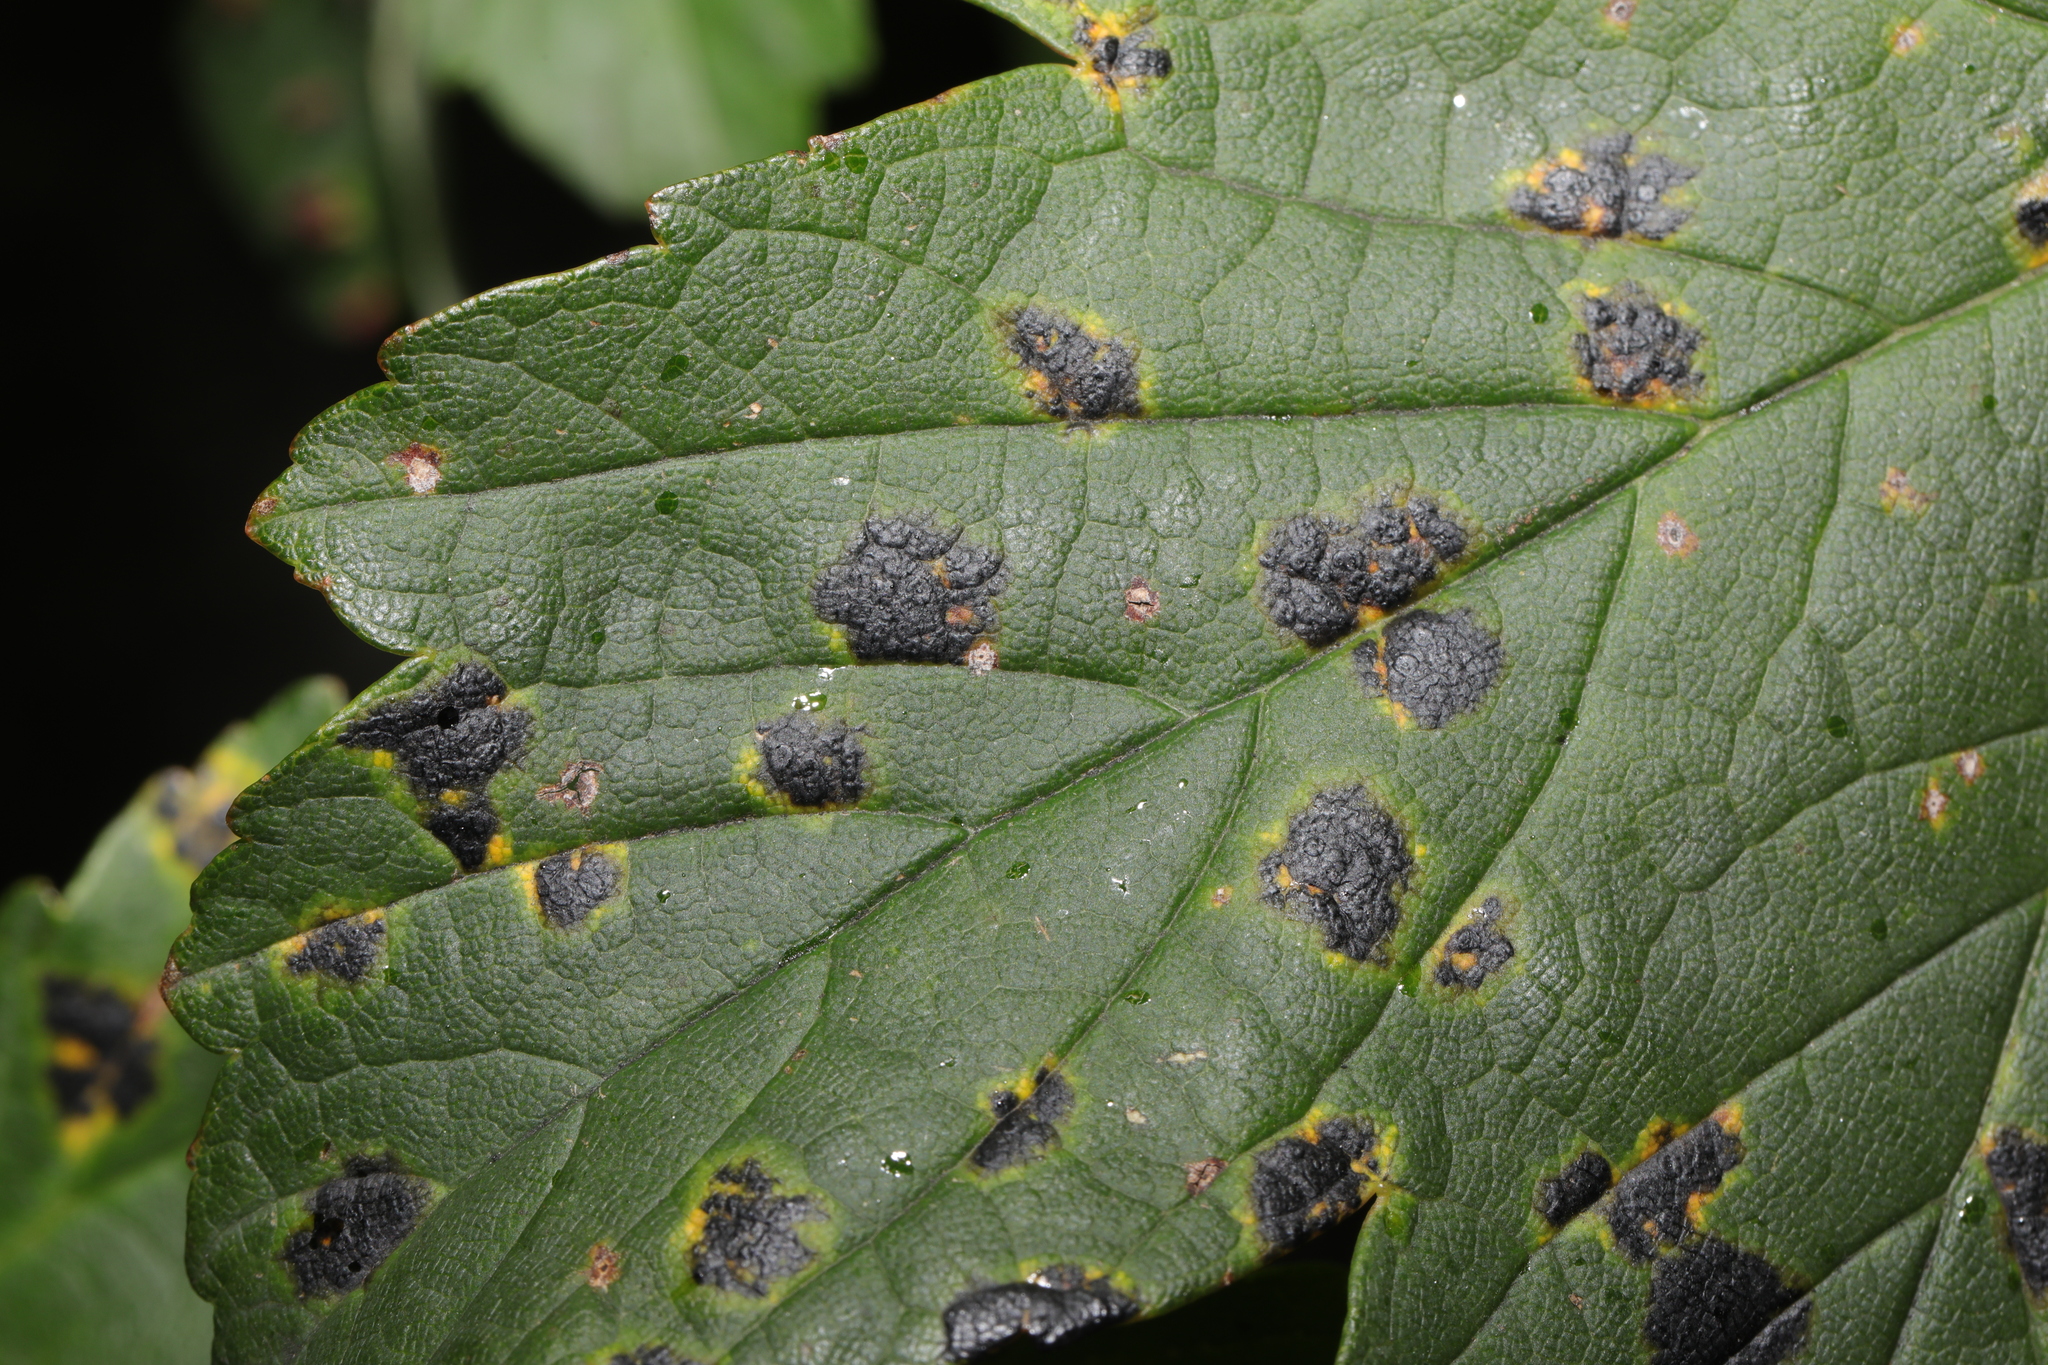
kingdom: Fungi
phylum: Ascomycota
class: Leotiomycetes
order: Rhytismatales
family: Rhytismataceae
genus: Rhytisma
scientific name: Rhytisma acerinum
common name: European tar spot
